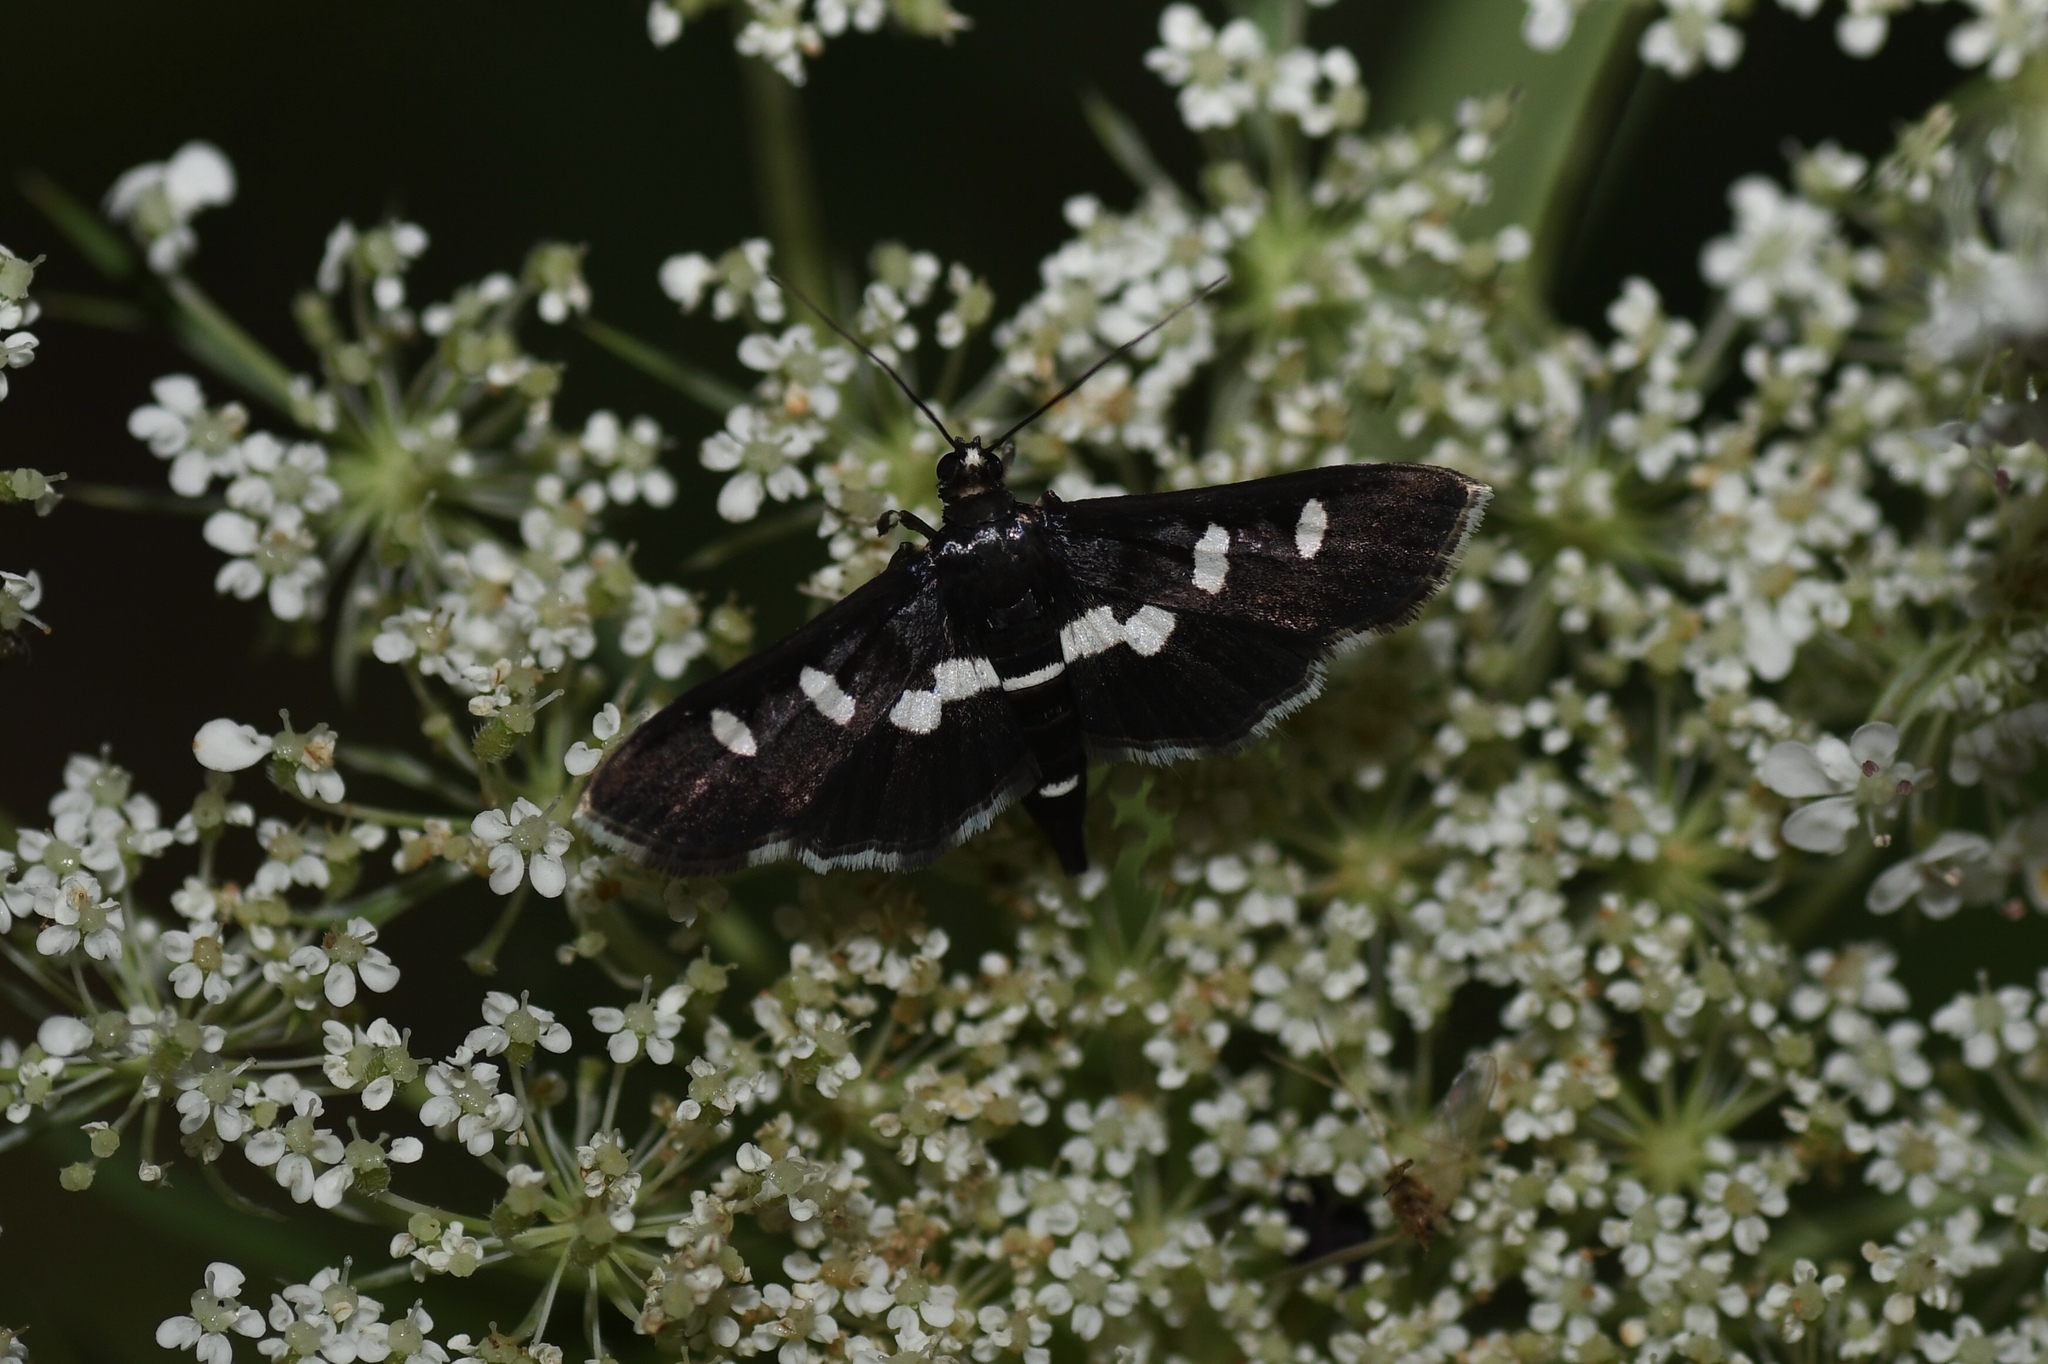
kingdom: Animalia
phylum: Arthropoda
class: Insecta
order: Lepidoptera
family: Crambidae
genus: Desmia
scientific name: Desmia
